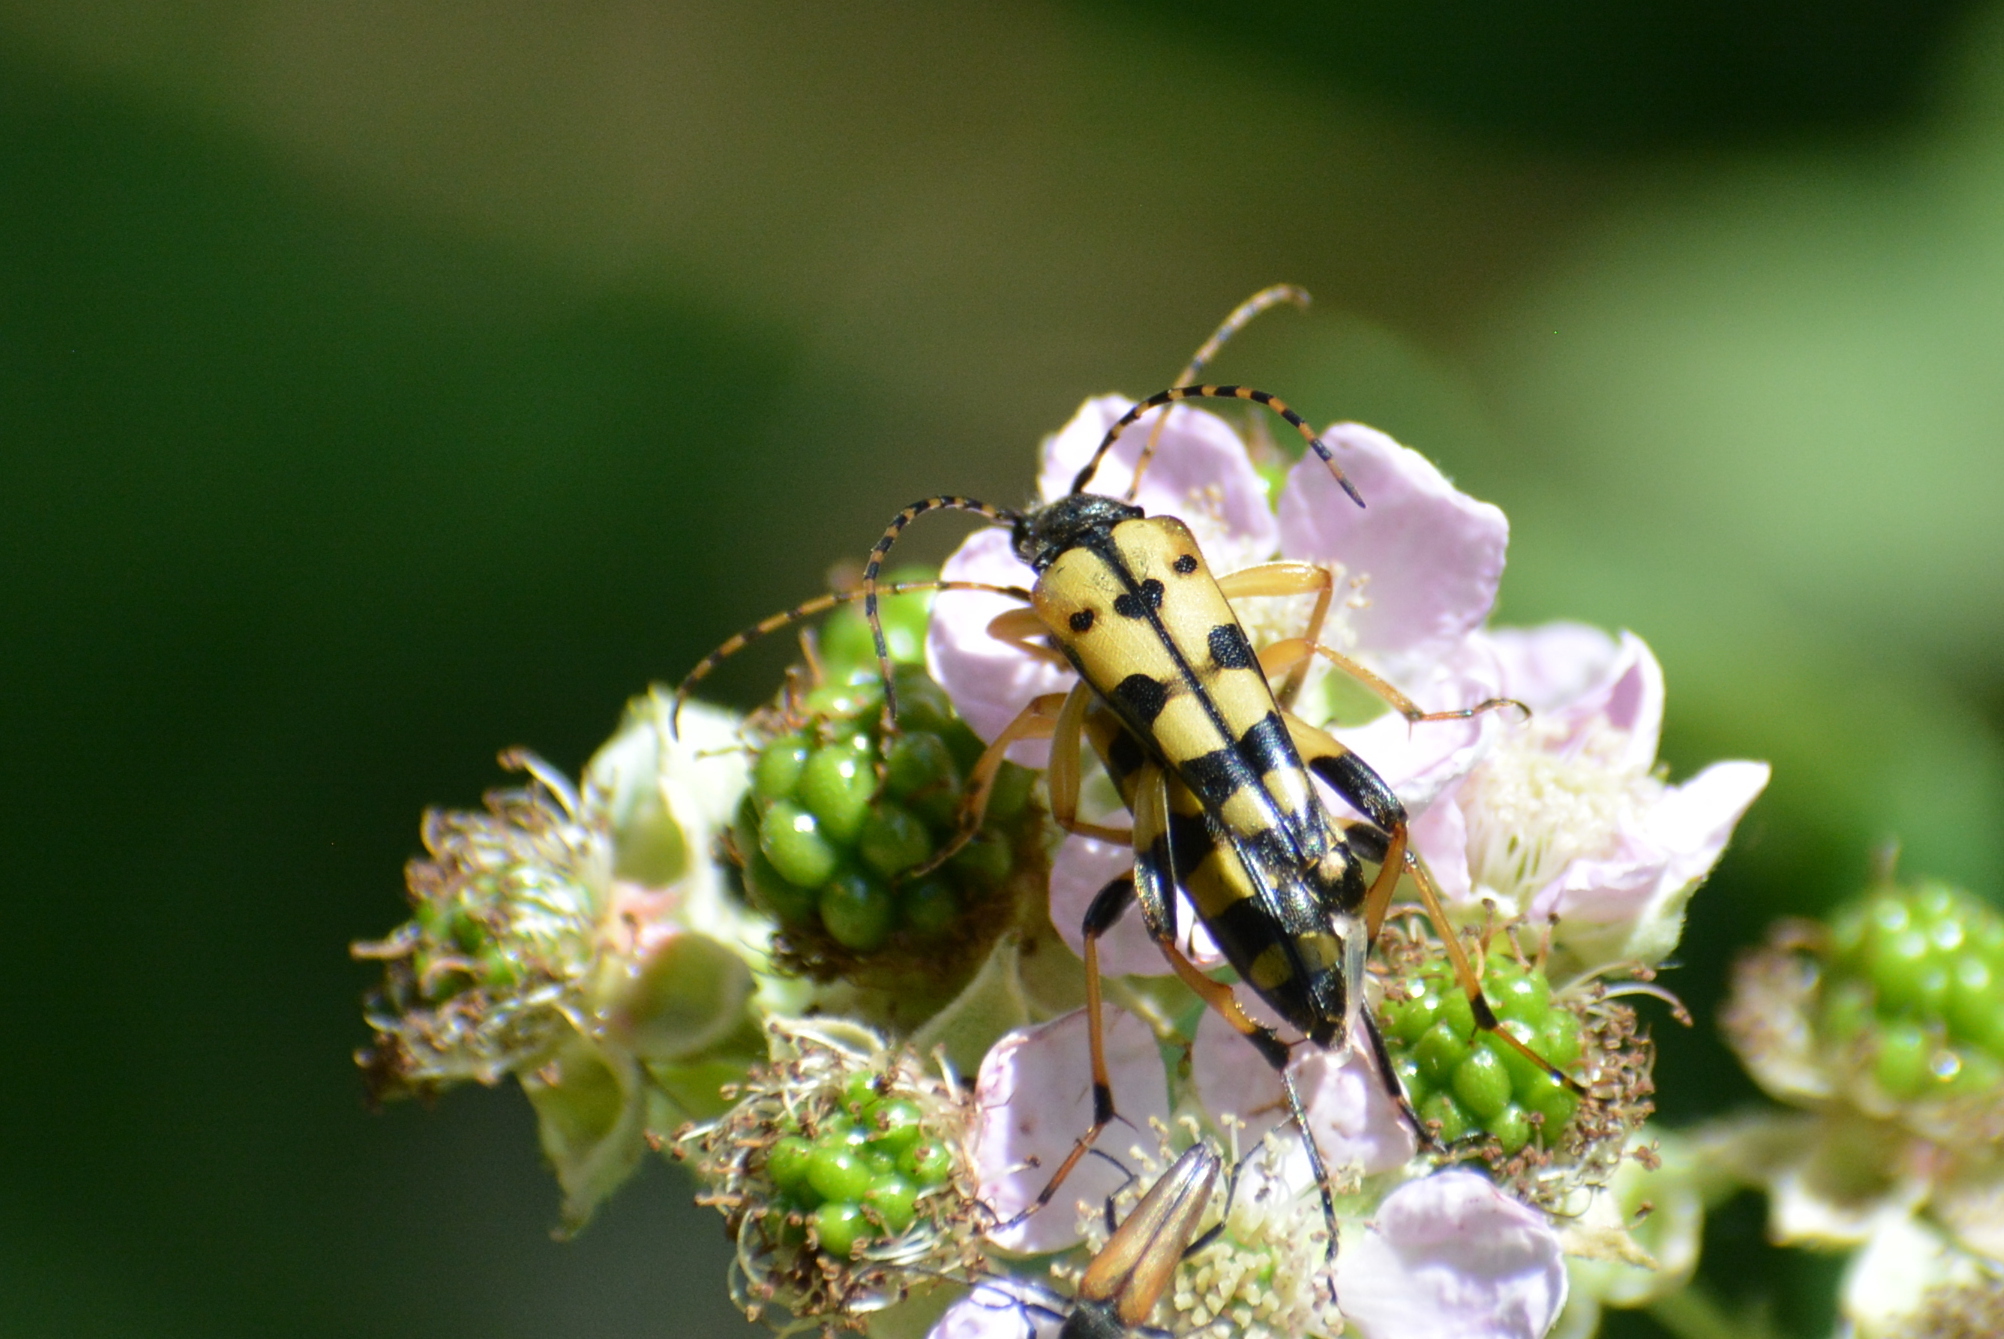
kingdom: Animalia
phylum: Arthropoda
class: Insecta
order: Coleoptera
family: Cerambycidae
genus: Rutpela
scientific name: Rutpela maculata
